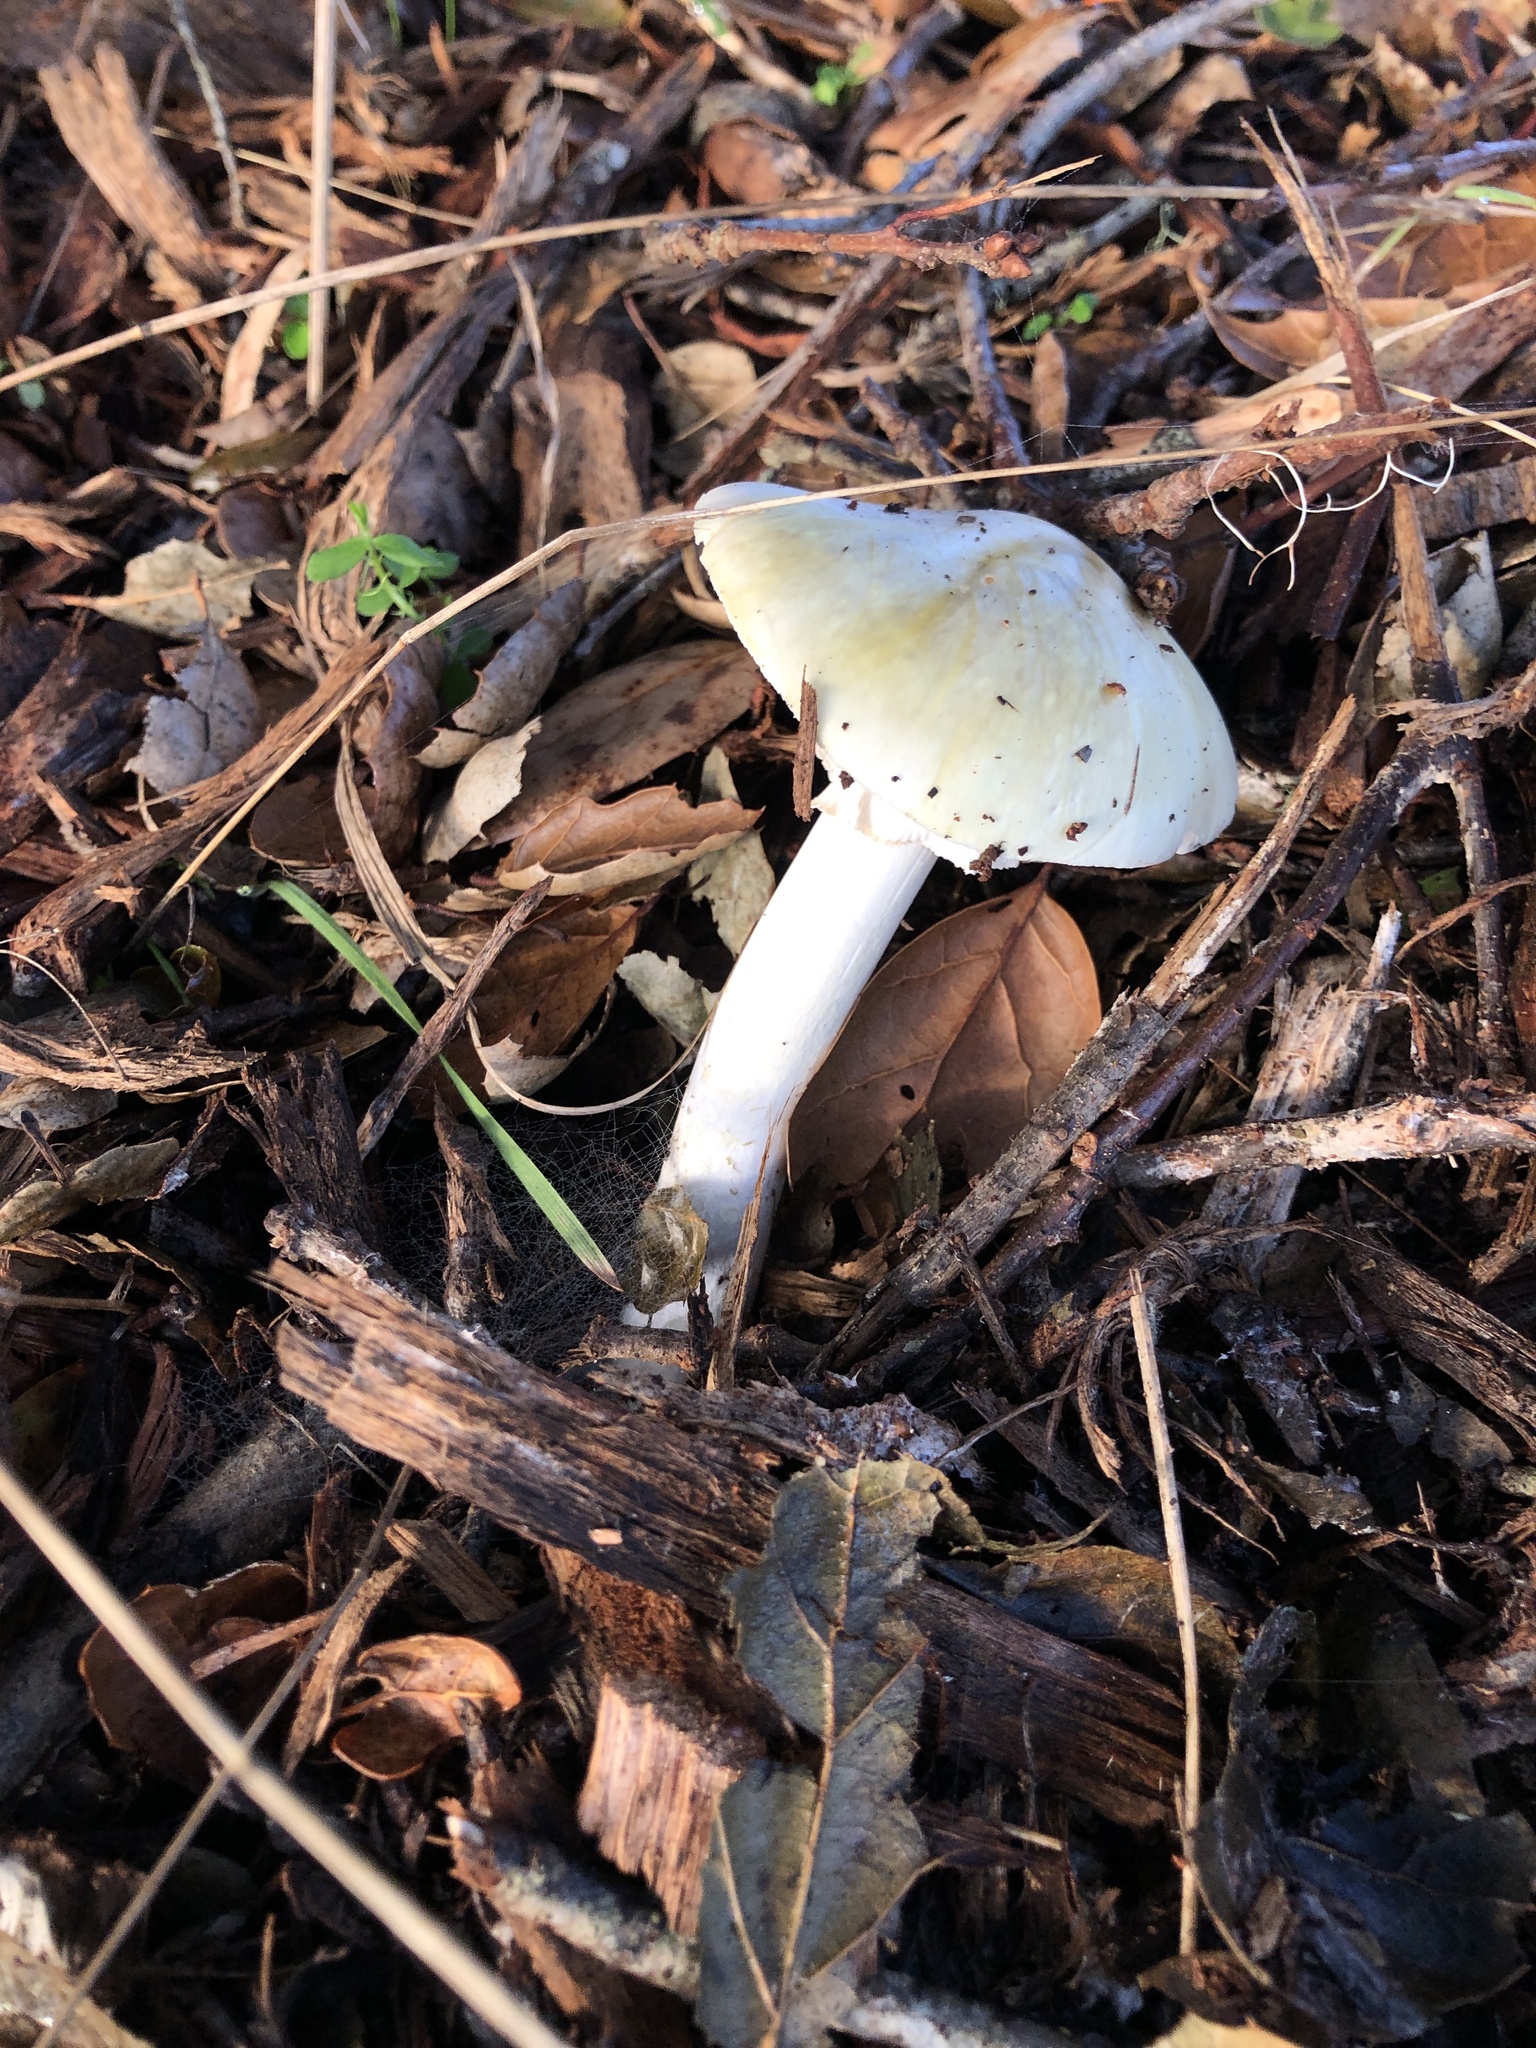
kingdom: Fungi
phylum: Basidiomycota
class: Agaricomycetes
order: Agaricales
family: Amanitaceae
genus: Amanita
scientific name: Amanita phalloides
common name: Death cap
